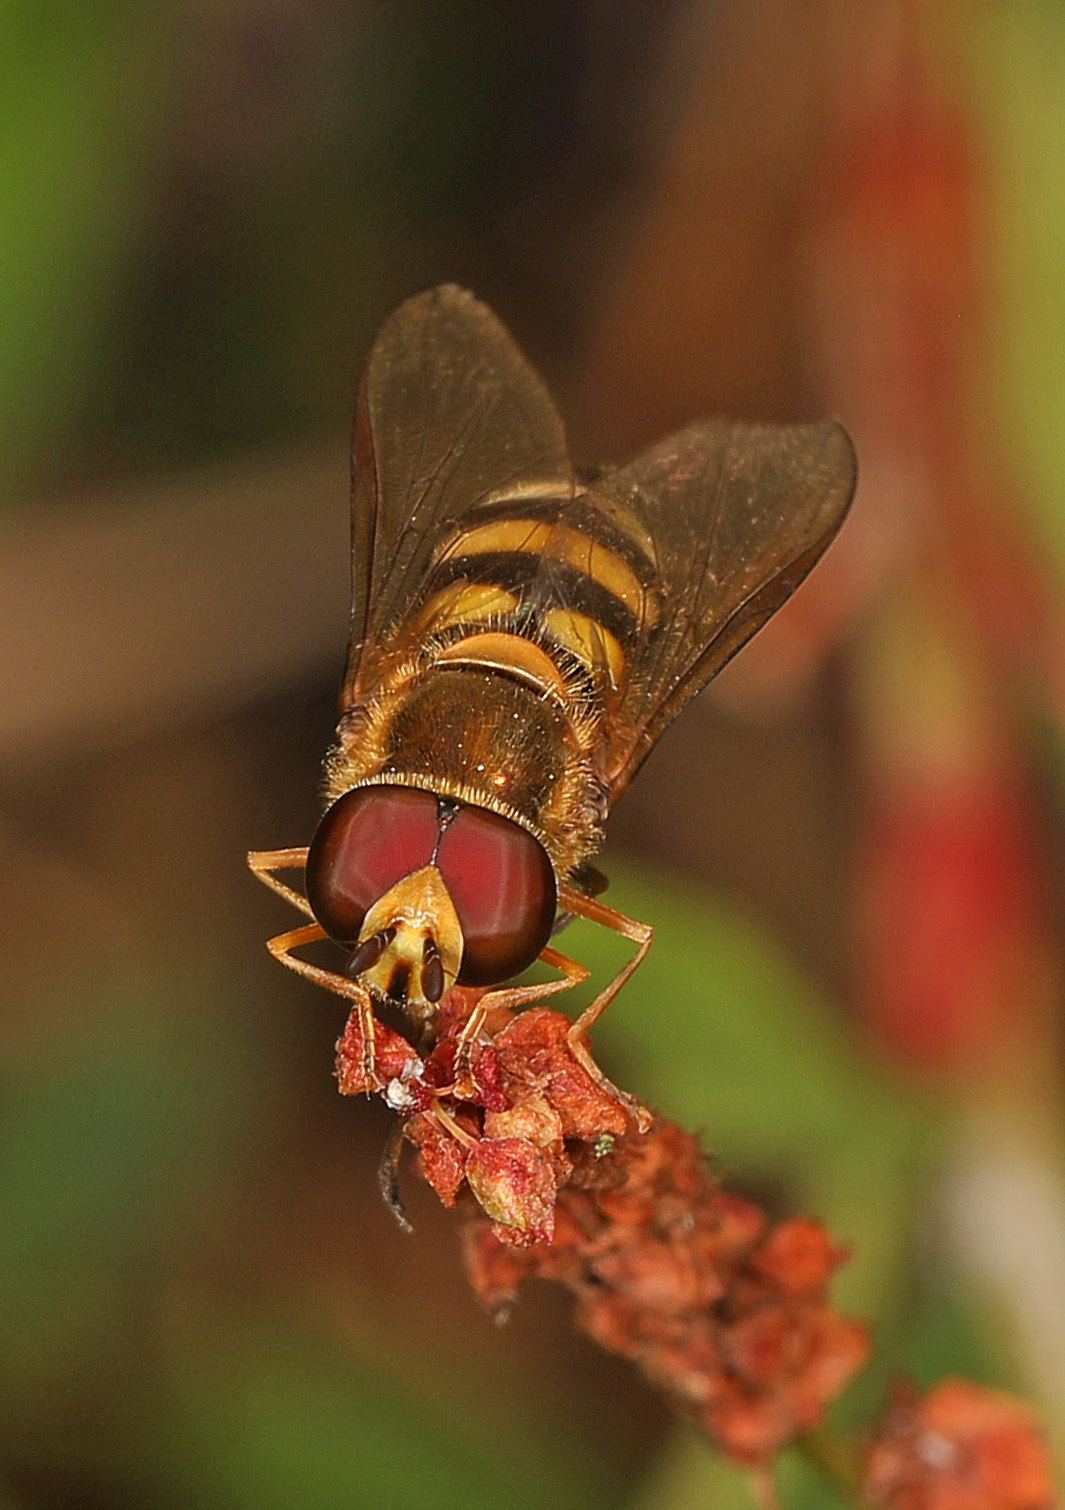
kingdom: Animalia
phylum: Arthropoda
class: Insecta
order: Diptera
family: Syrphidae
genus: Eupeodes
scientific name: Eupeodes
